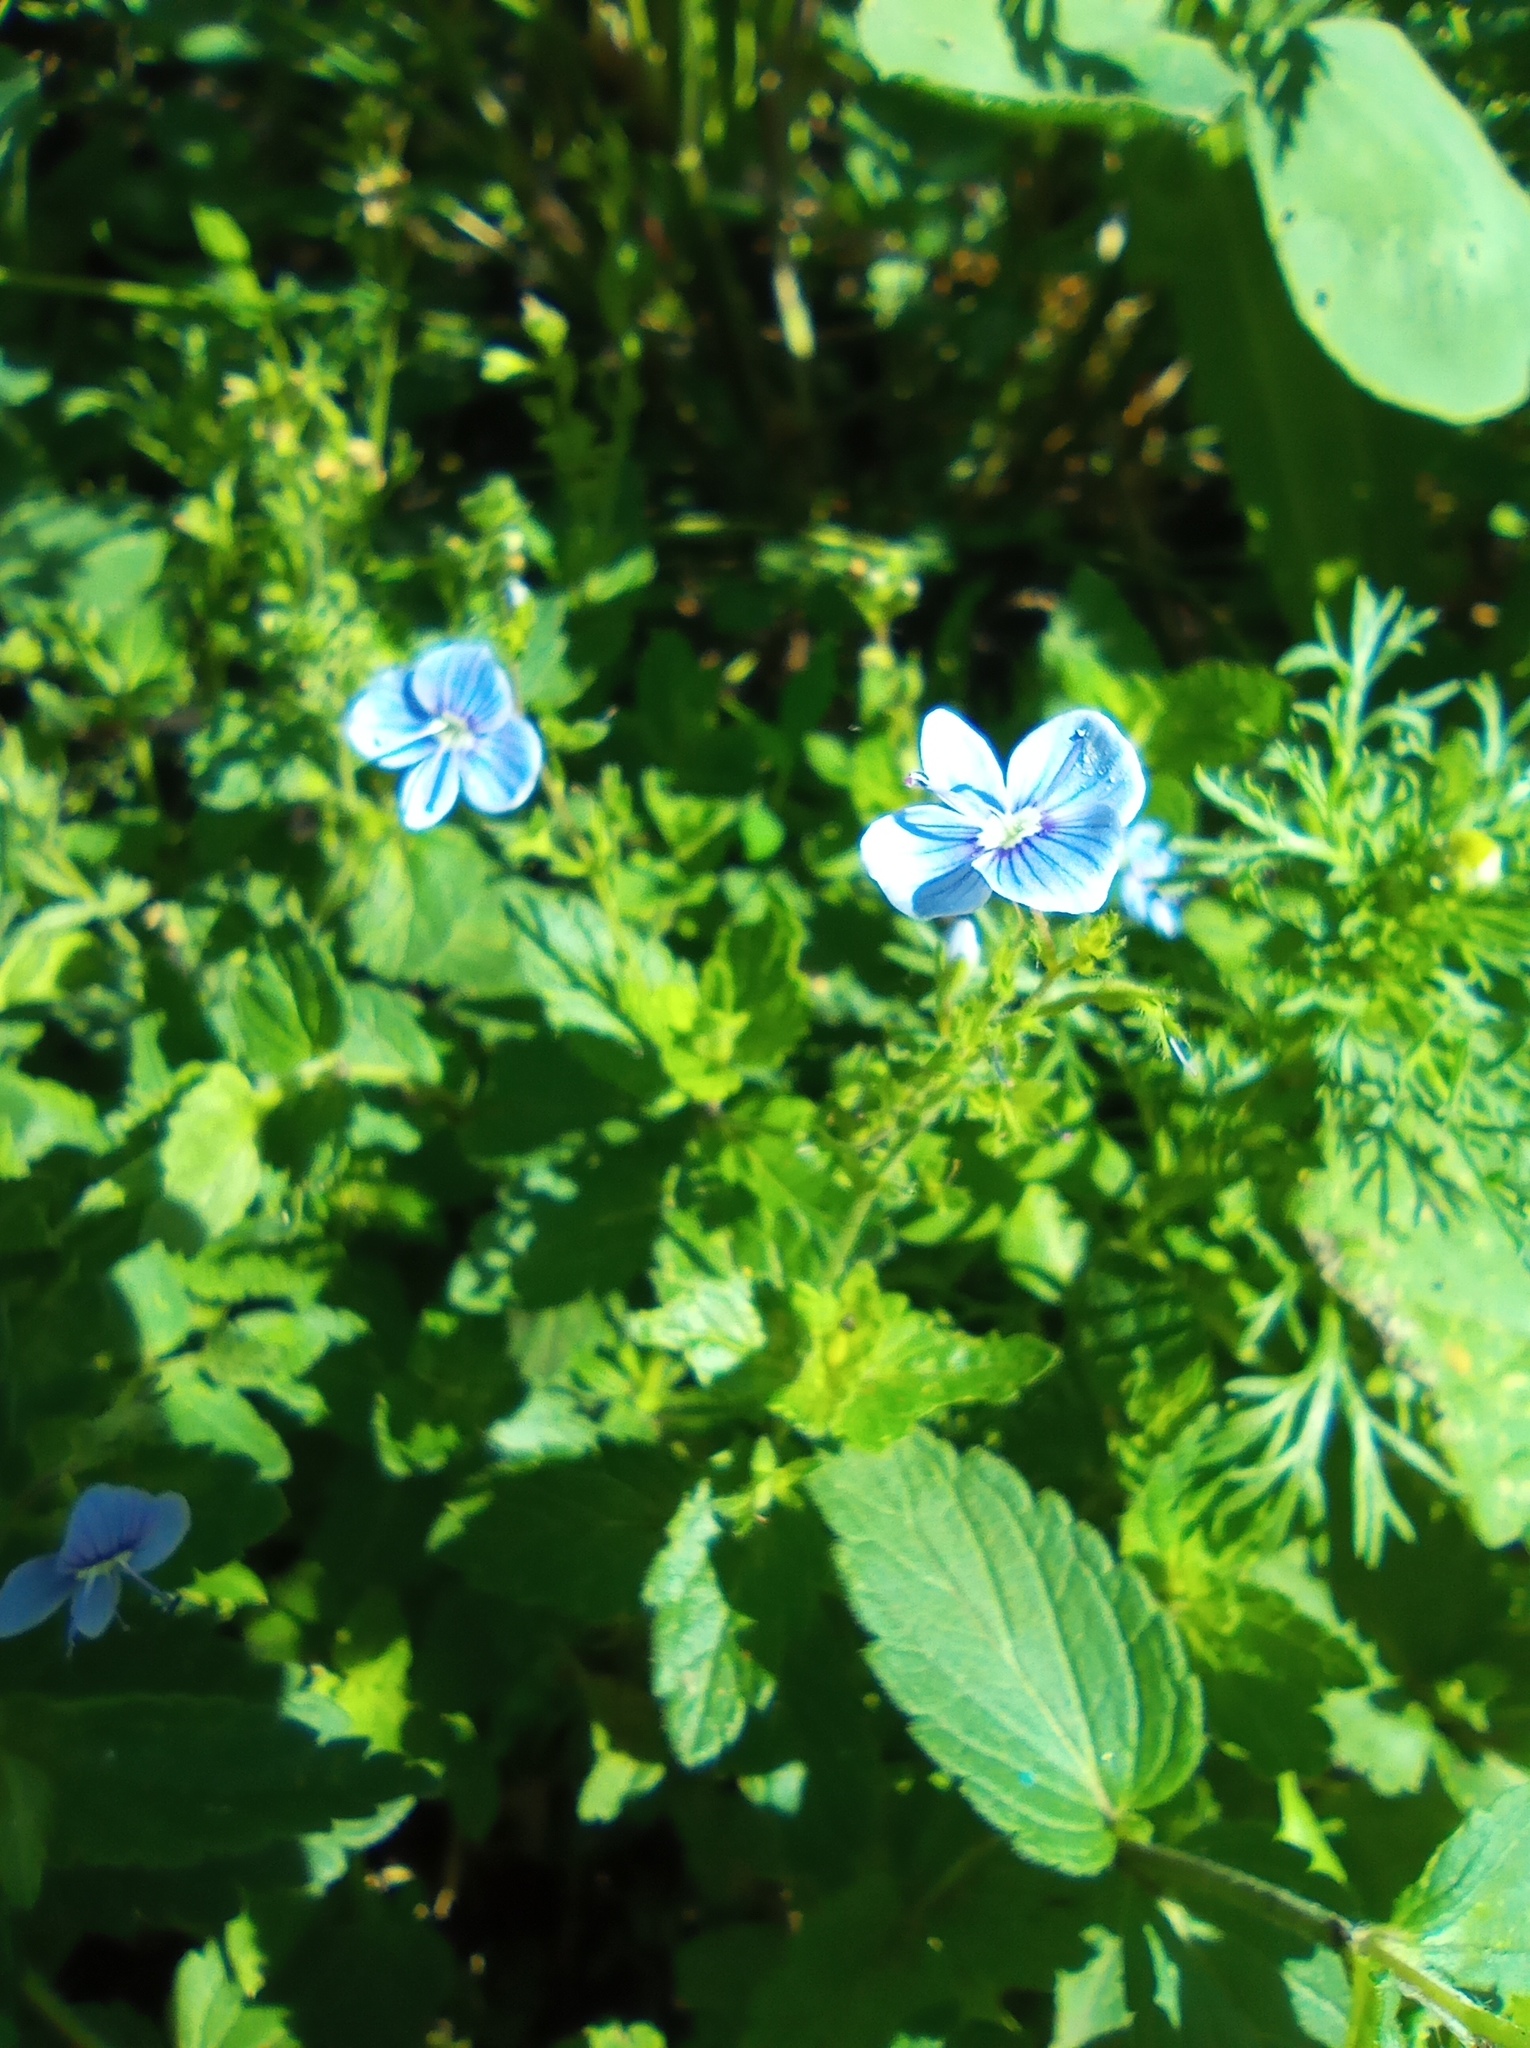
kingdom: Plantae
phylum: Tracheophyta
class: Magnoliopsida
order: Lamiales
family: Plantaginaceae
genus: Veronica
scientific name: Veronica chamaedrys
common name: Germander speedwell
